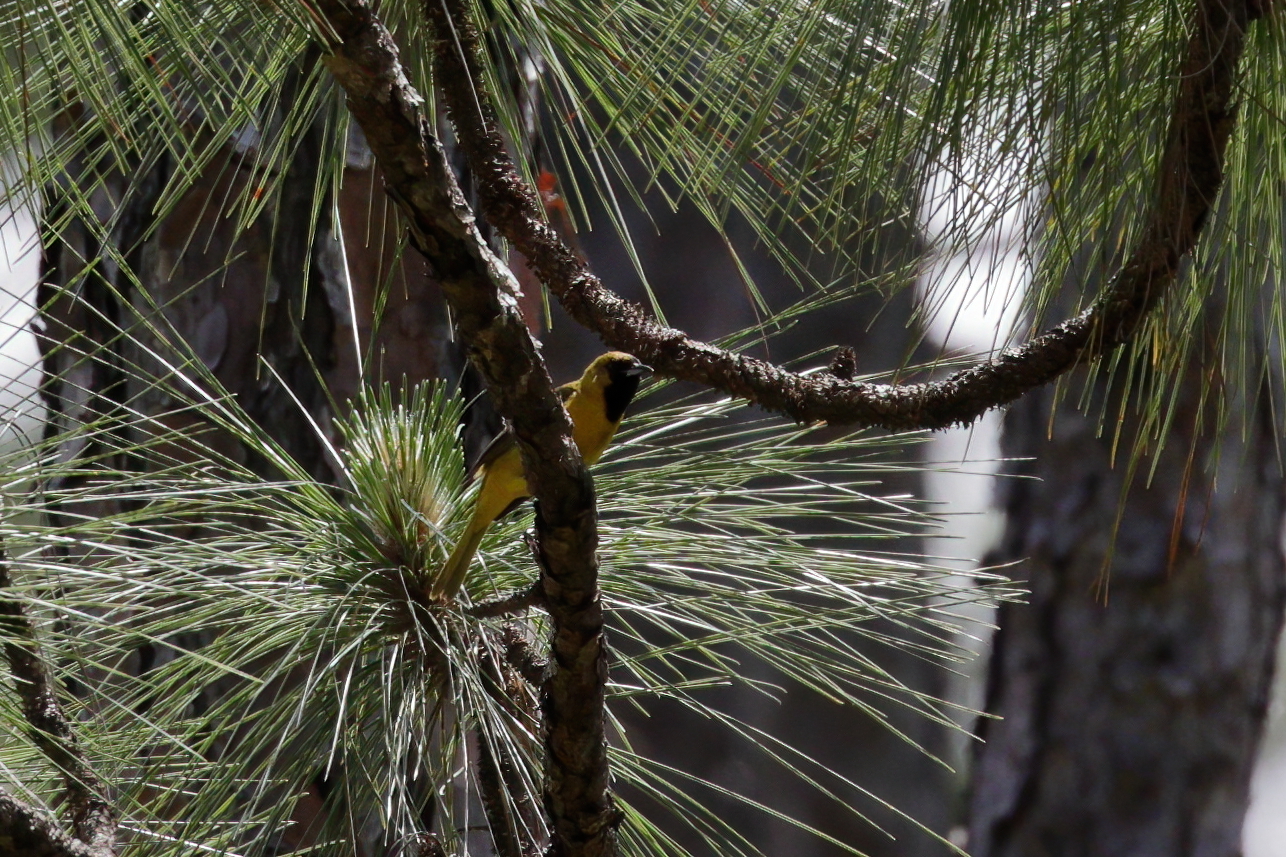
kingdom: Animalia
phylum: Chordata
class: Aves
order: Passeriformes
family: Icteridae
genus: Icterus
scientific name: Icterus spurius
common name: Orchard oriole
